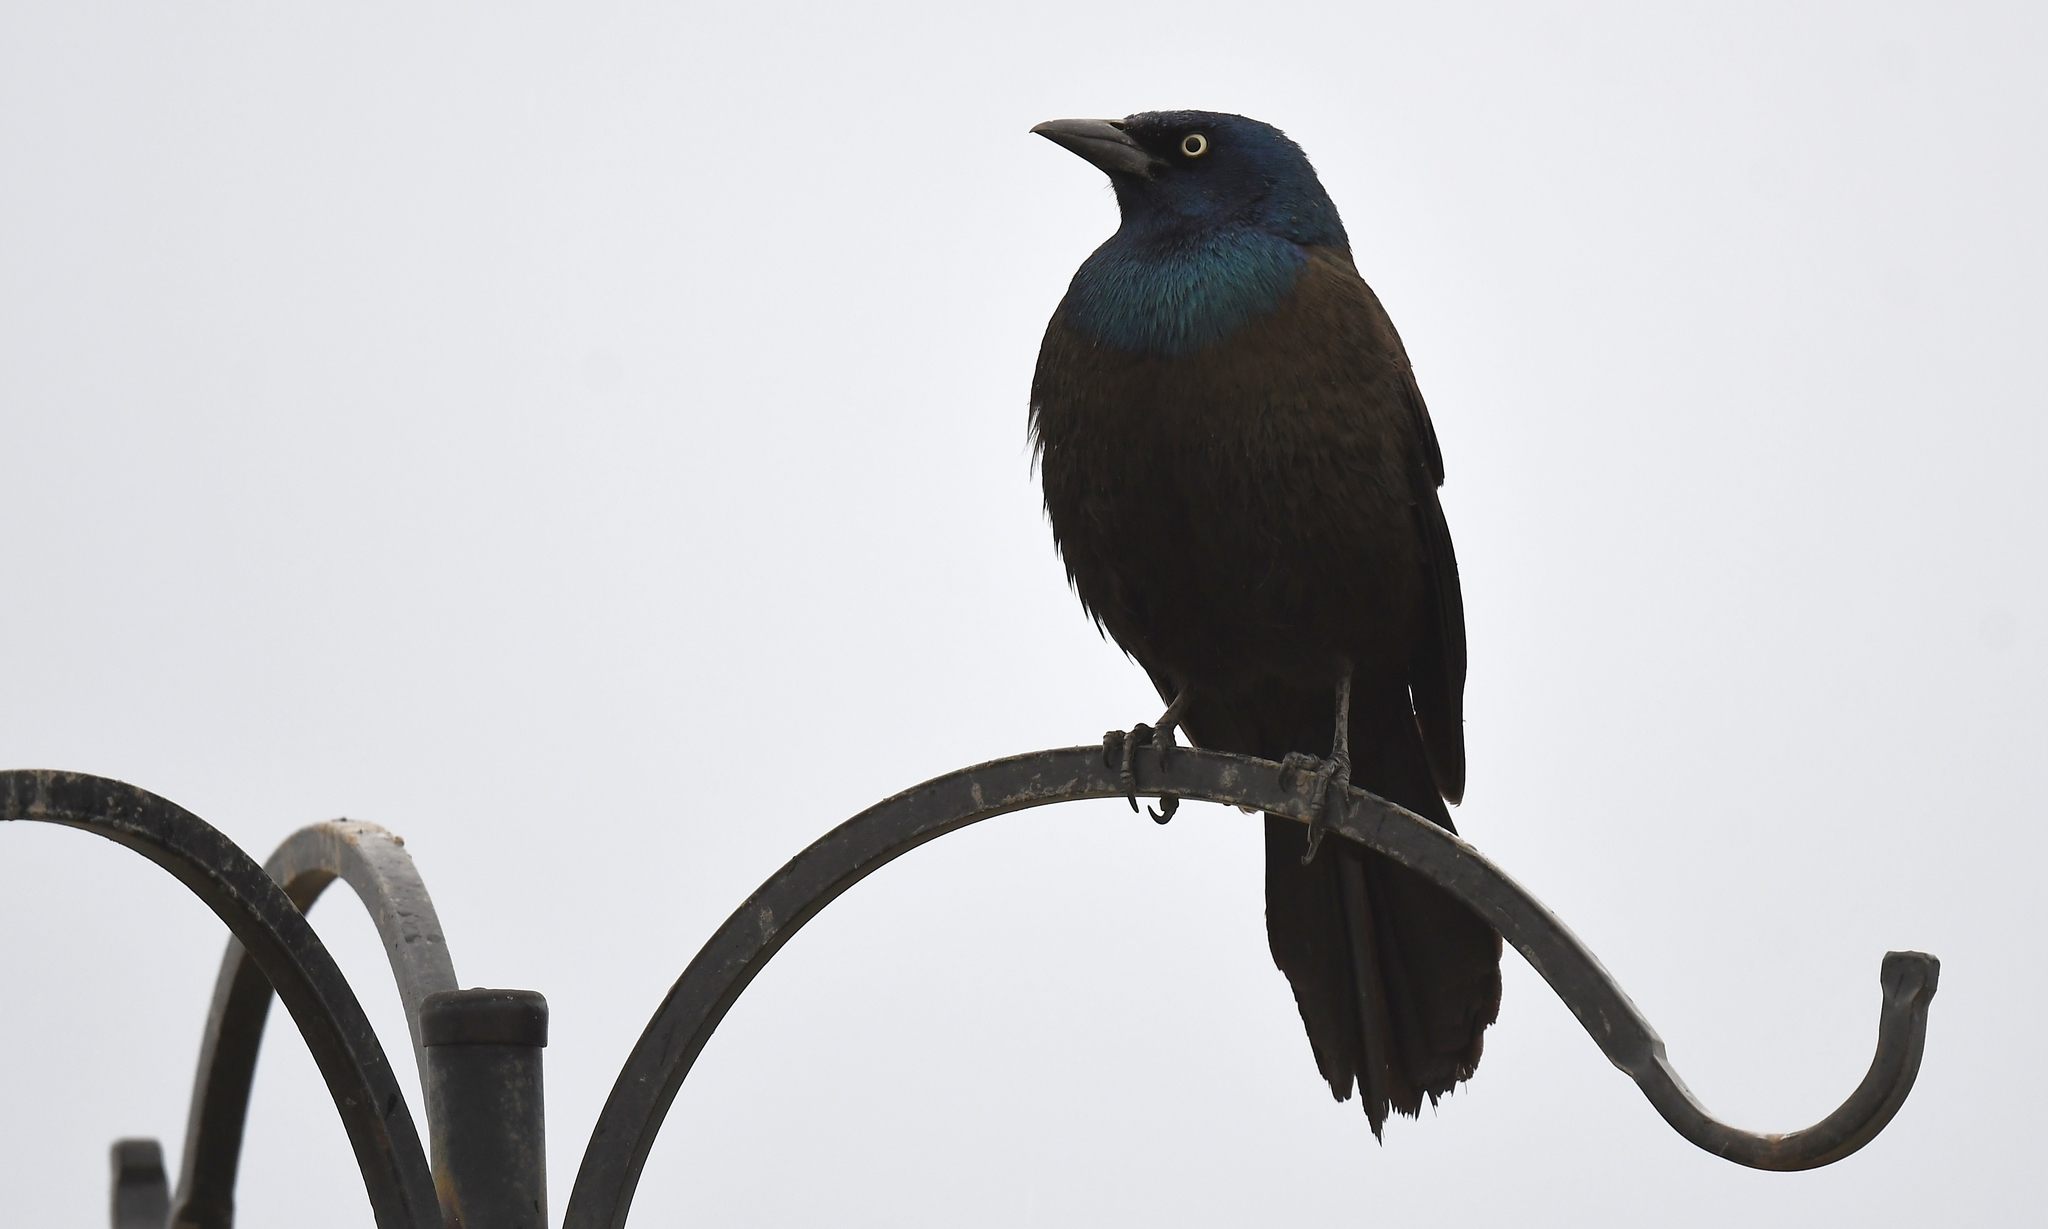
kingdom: Animalia
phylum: Chordata
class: Aves
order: Passeriformes
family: Icteridae
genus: Quiscalus
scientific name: Quiscalus quiscula
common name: Common grackle
